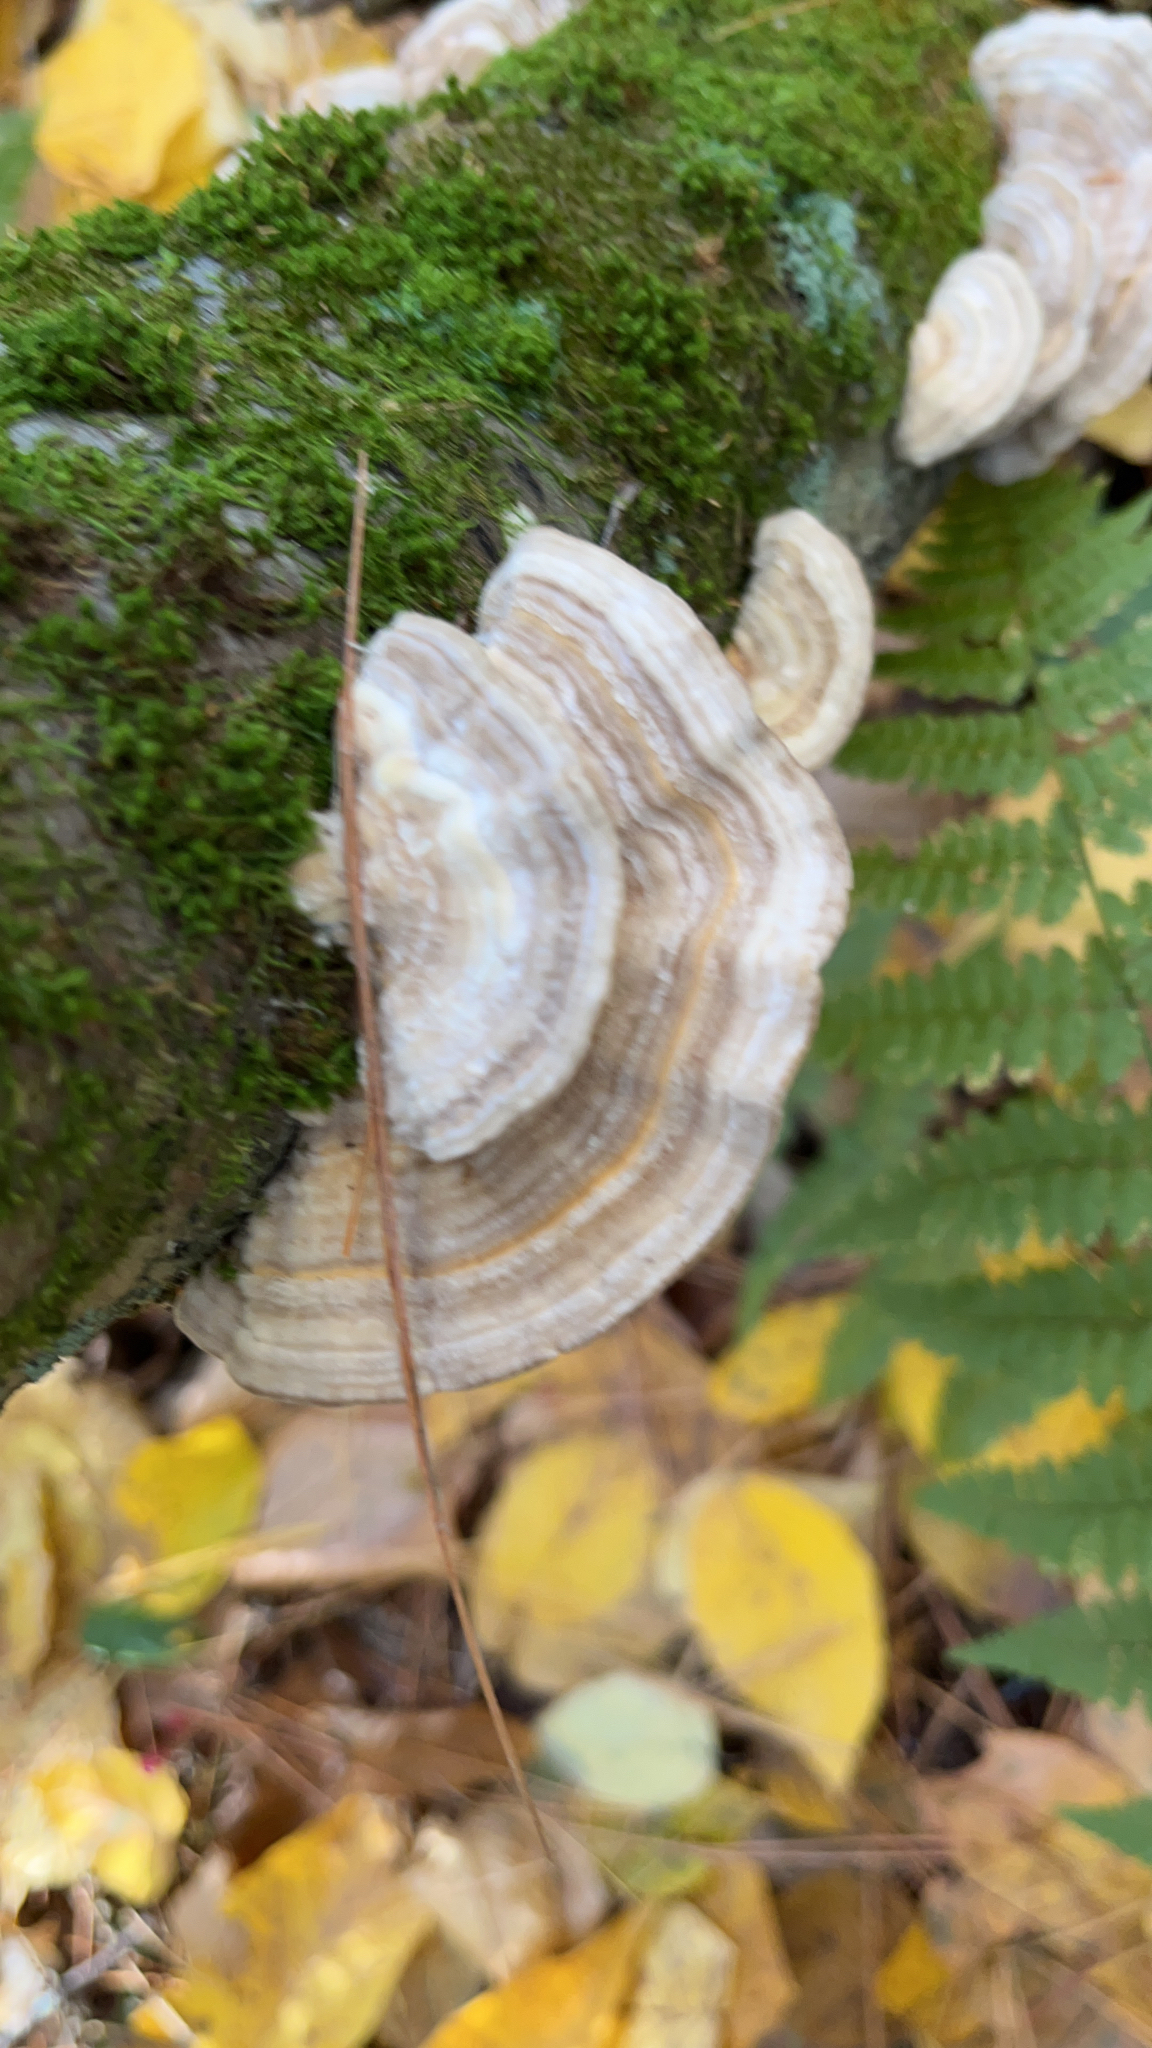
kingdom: Fungi
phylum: Basidiomycota
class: Agaricomycetes
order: Polyporales
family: Polyporaceae
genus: Lenzites
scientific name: Lenzites betulinus
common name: Birch mazegill
